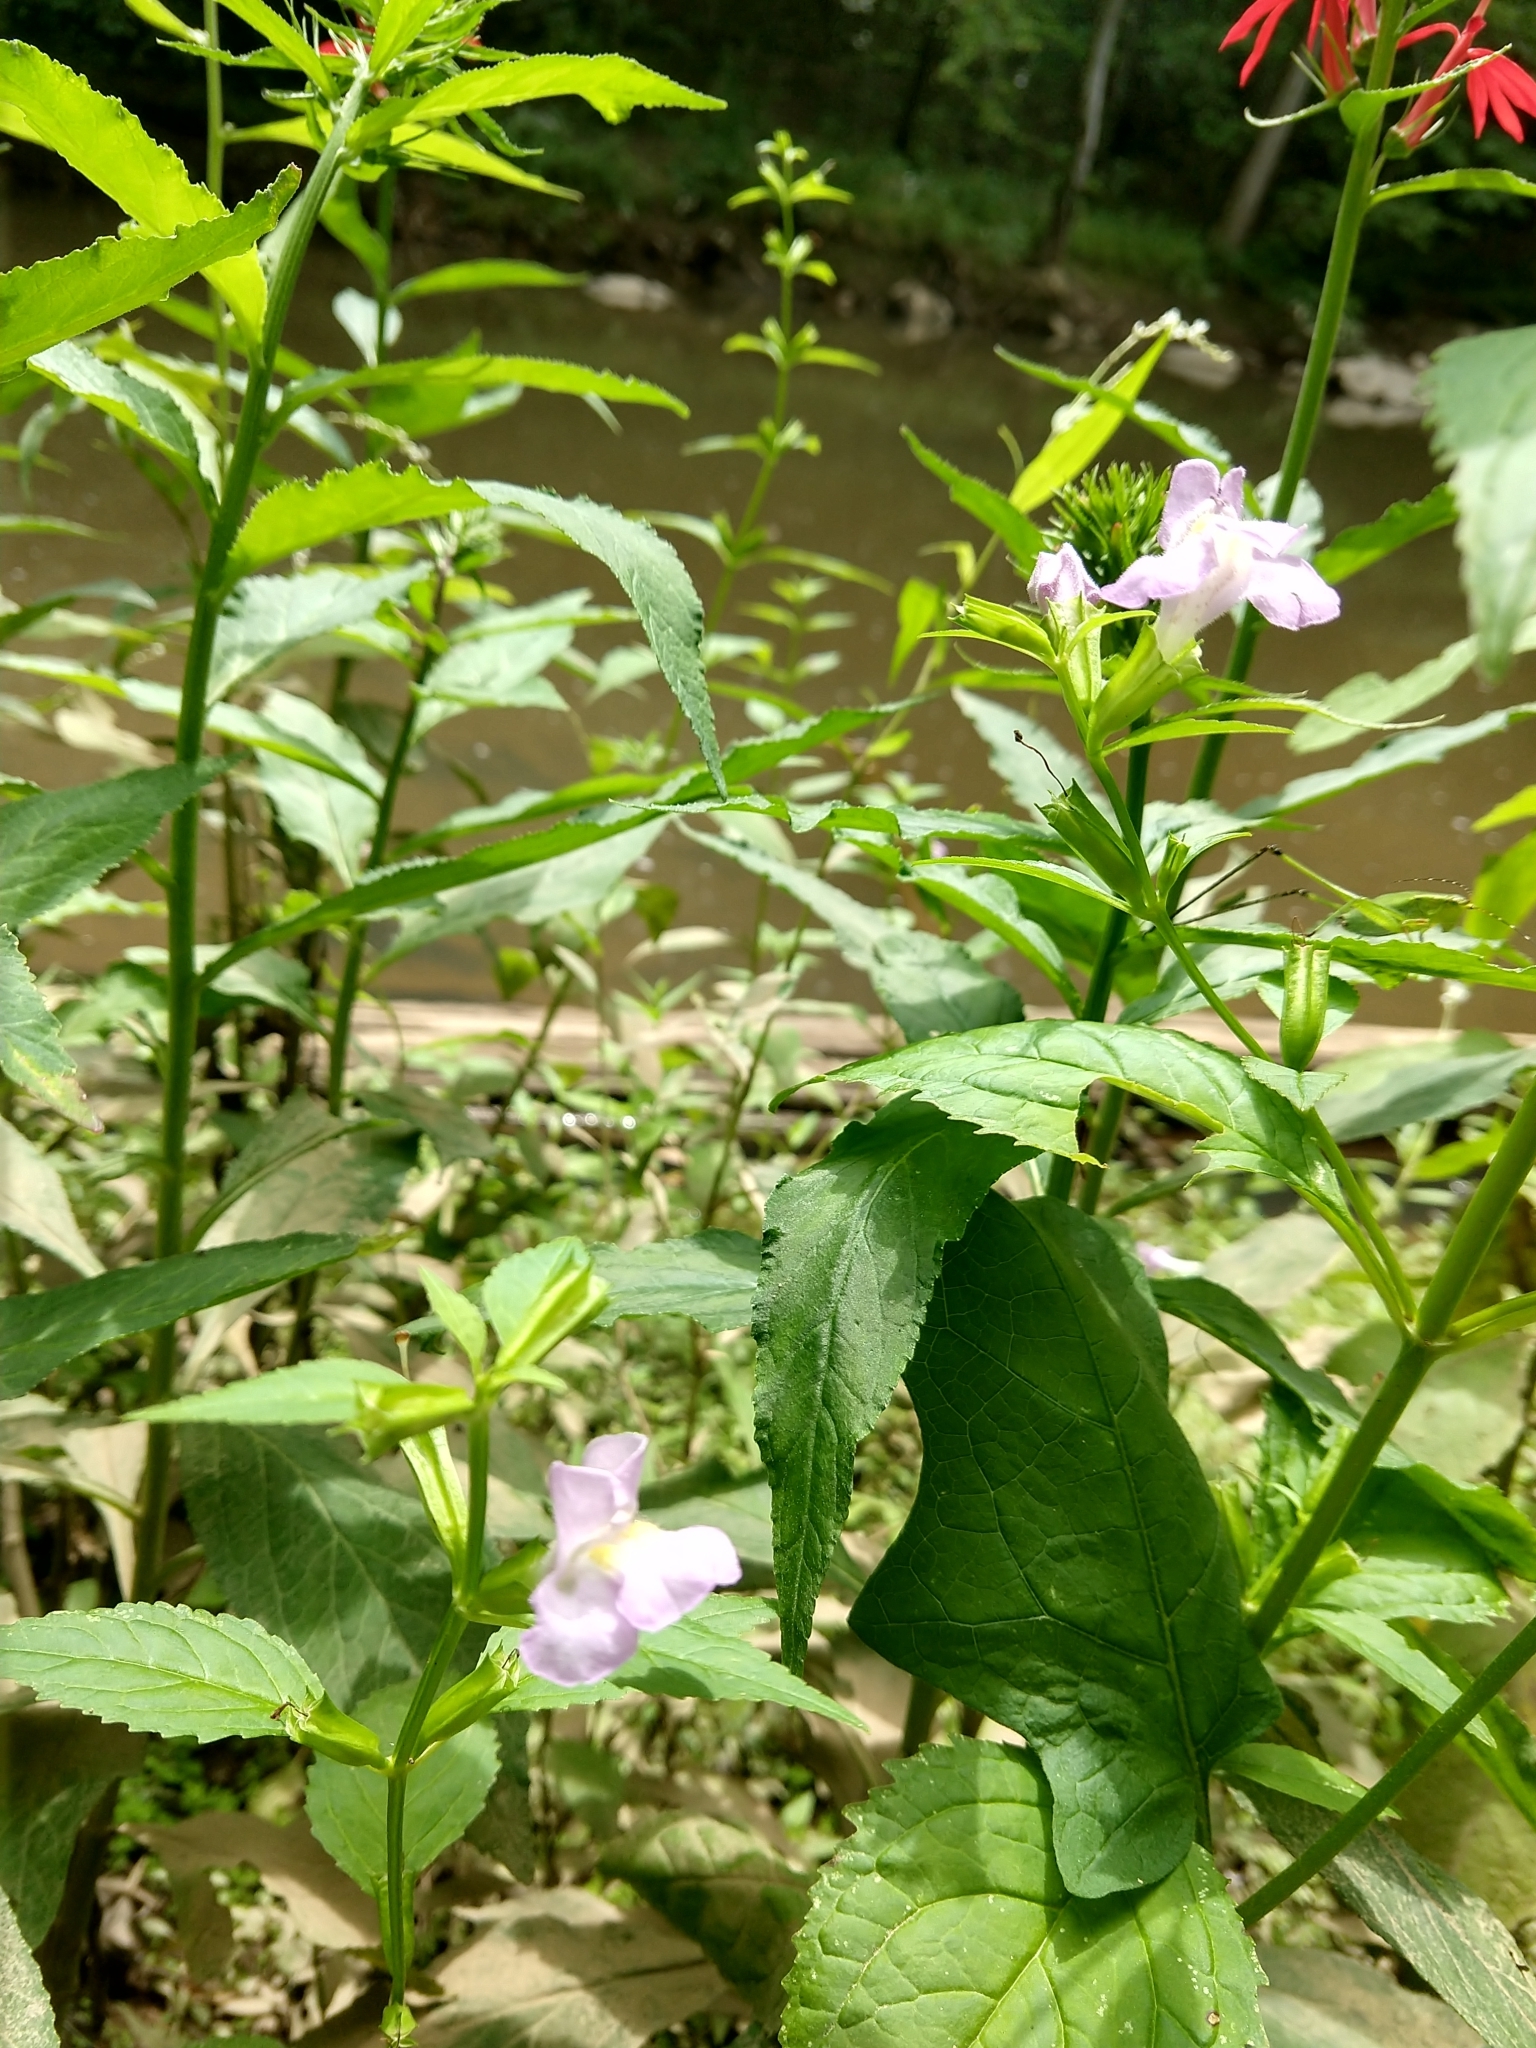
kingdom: Plantae
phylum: Tracheophyta
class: Magnoliopsida
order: Lamiales
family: Phrymaceae
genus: Mimulus
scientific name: Mimulus alatus
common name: Sharp-wing monkey-flower
